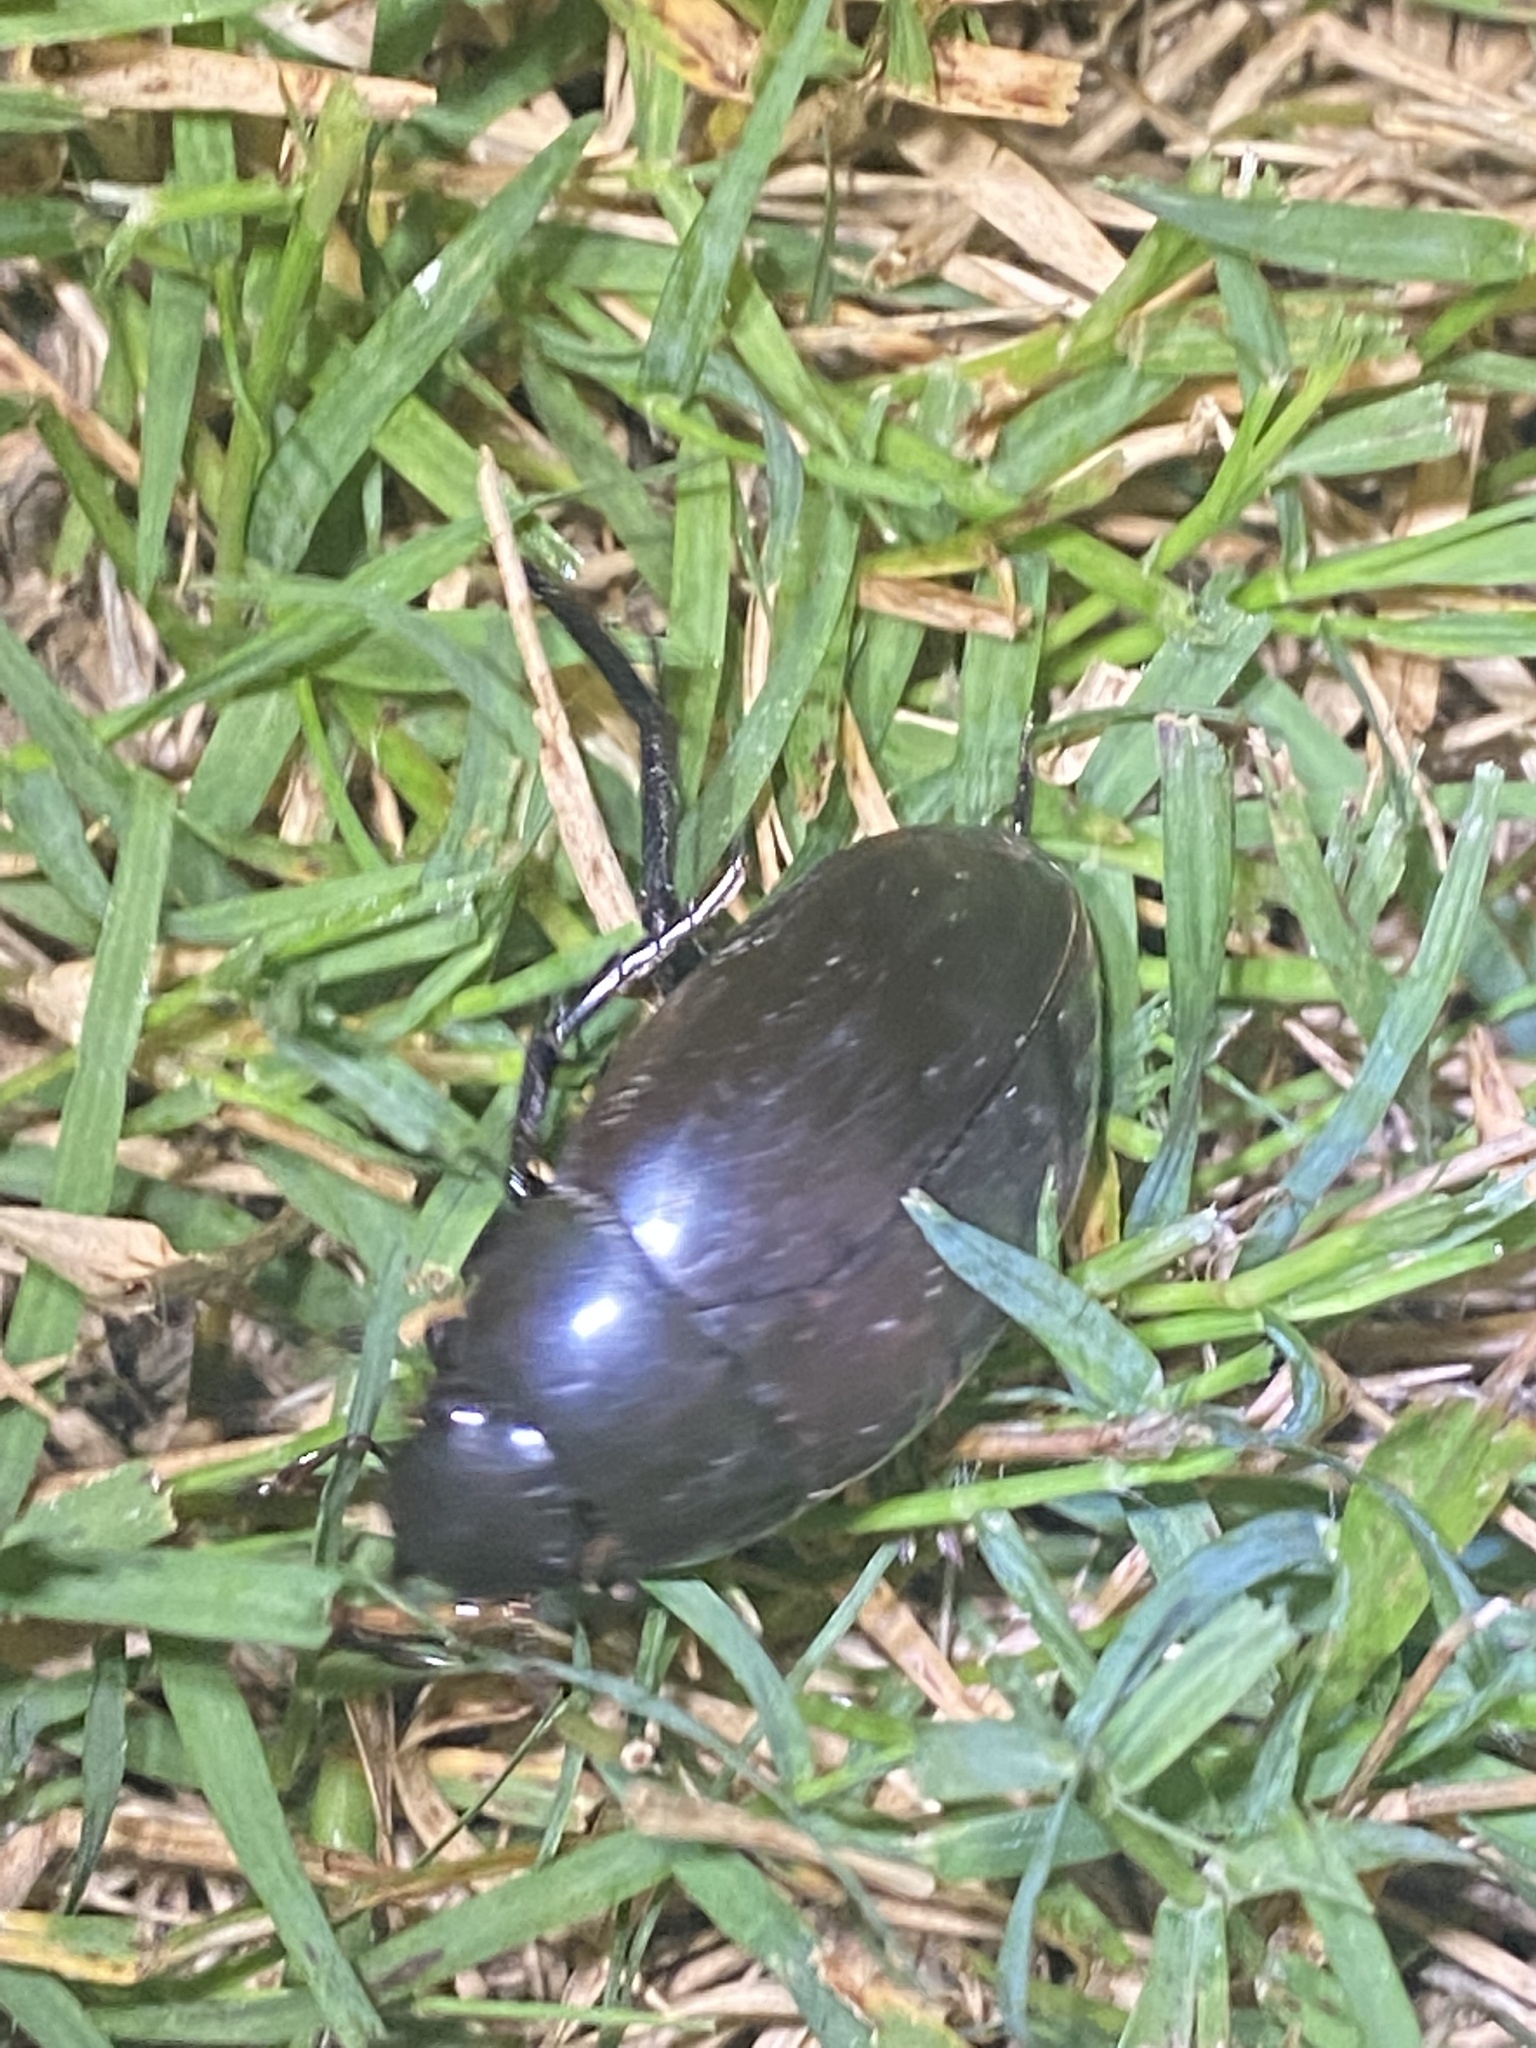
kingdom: Animalia
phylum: Arthropoda
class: Insecta
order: Coleoptera
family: Hydrophilidae
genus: Hydrophilus
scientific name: Hydrophilus ovatus
